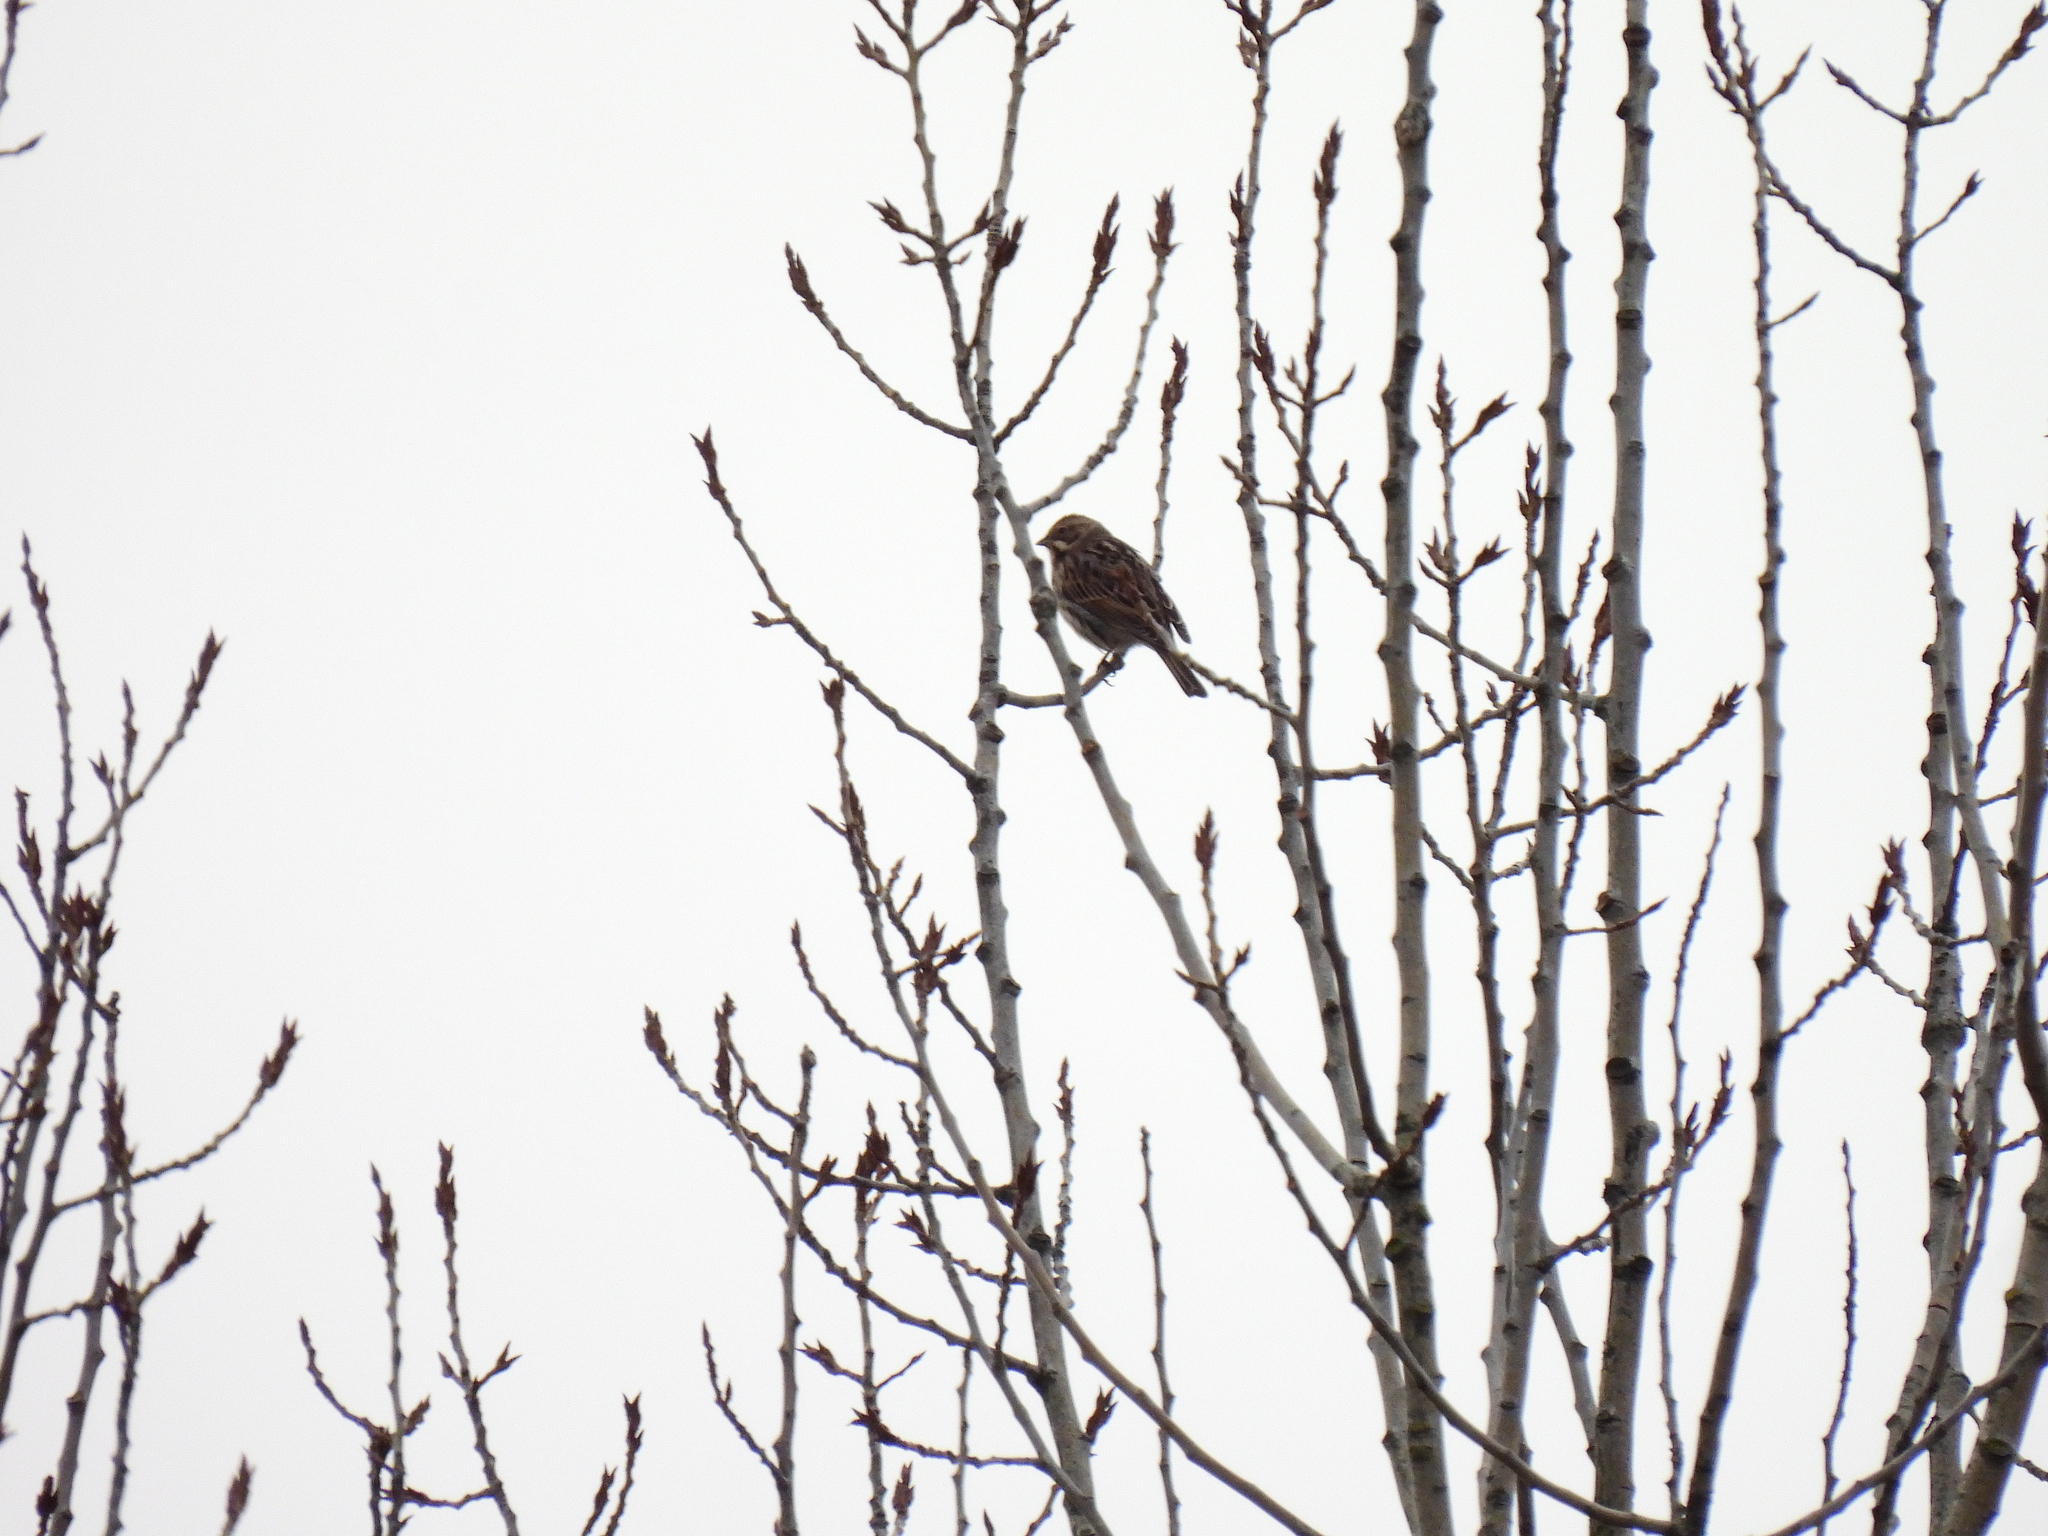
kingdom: Animalia
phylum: Chordata
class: Aves
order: Passeriformes
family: Emberizidae
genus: Emberiza
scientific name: Emberiza schoeniclus
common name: Reed bunting
